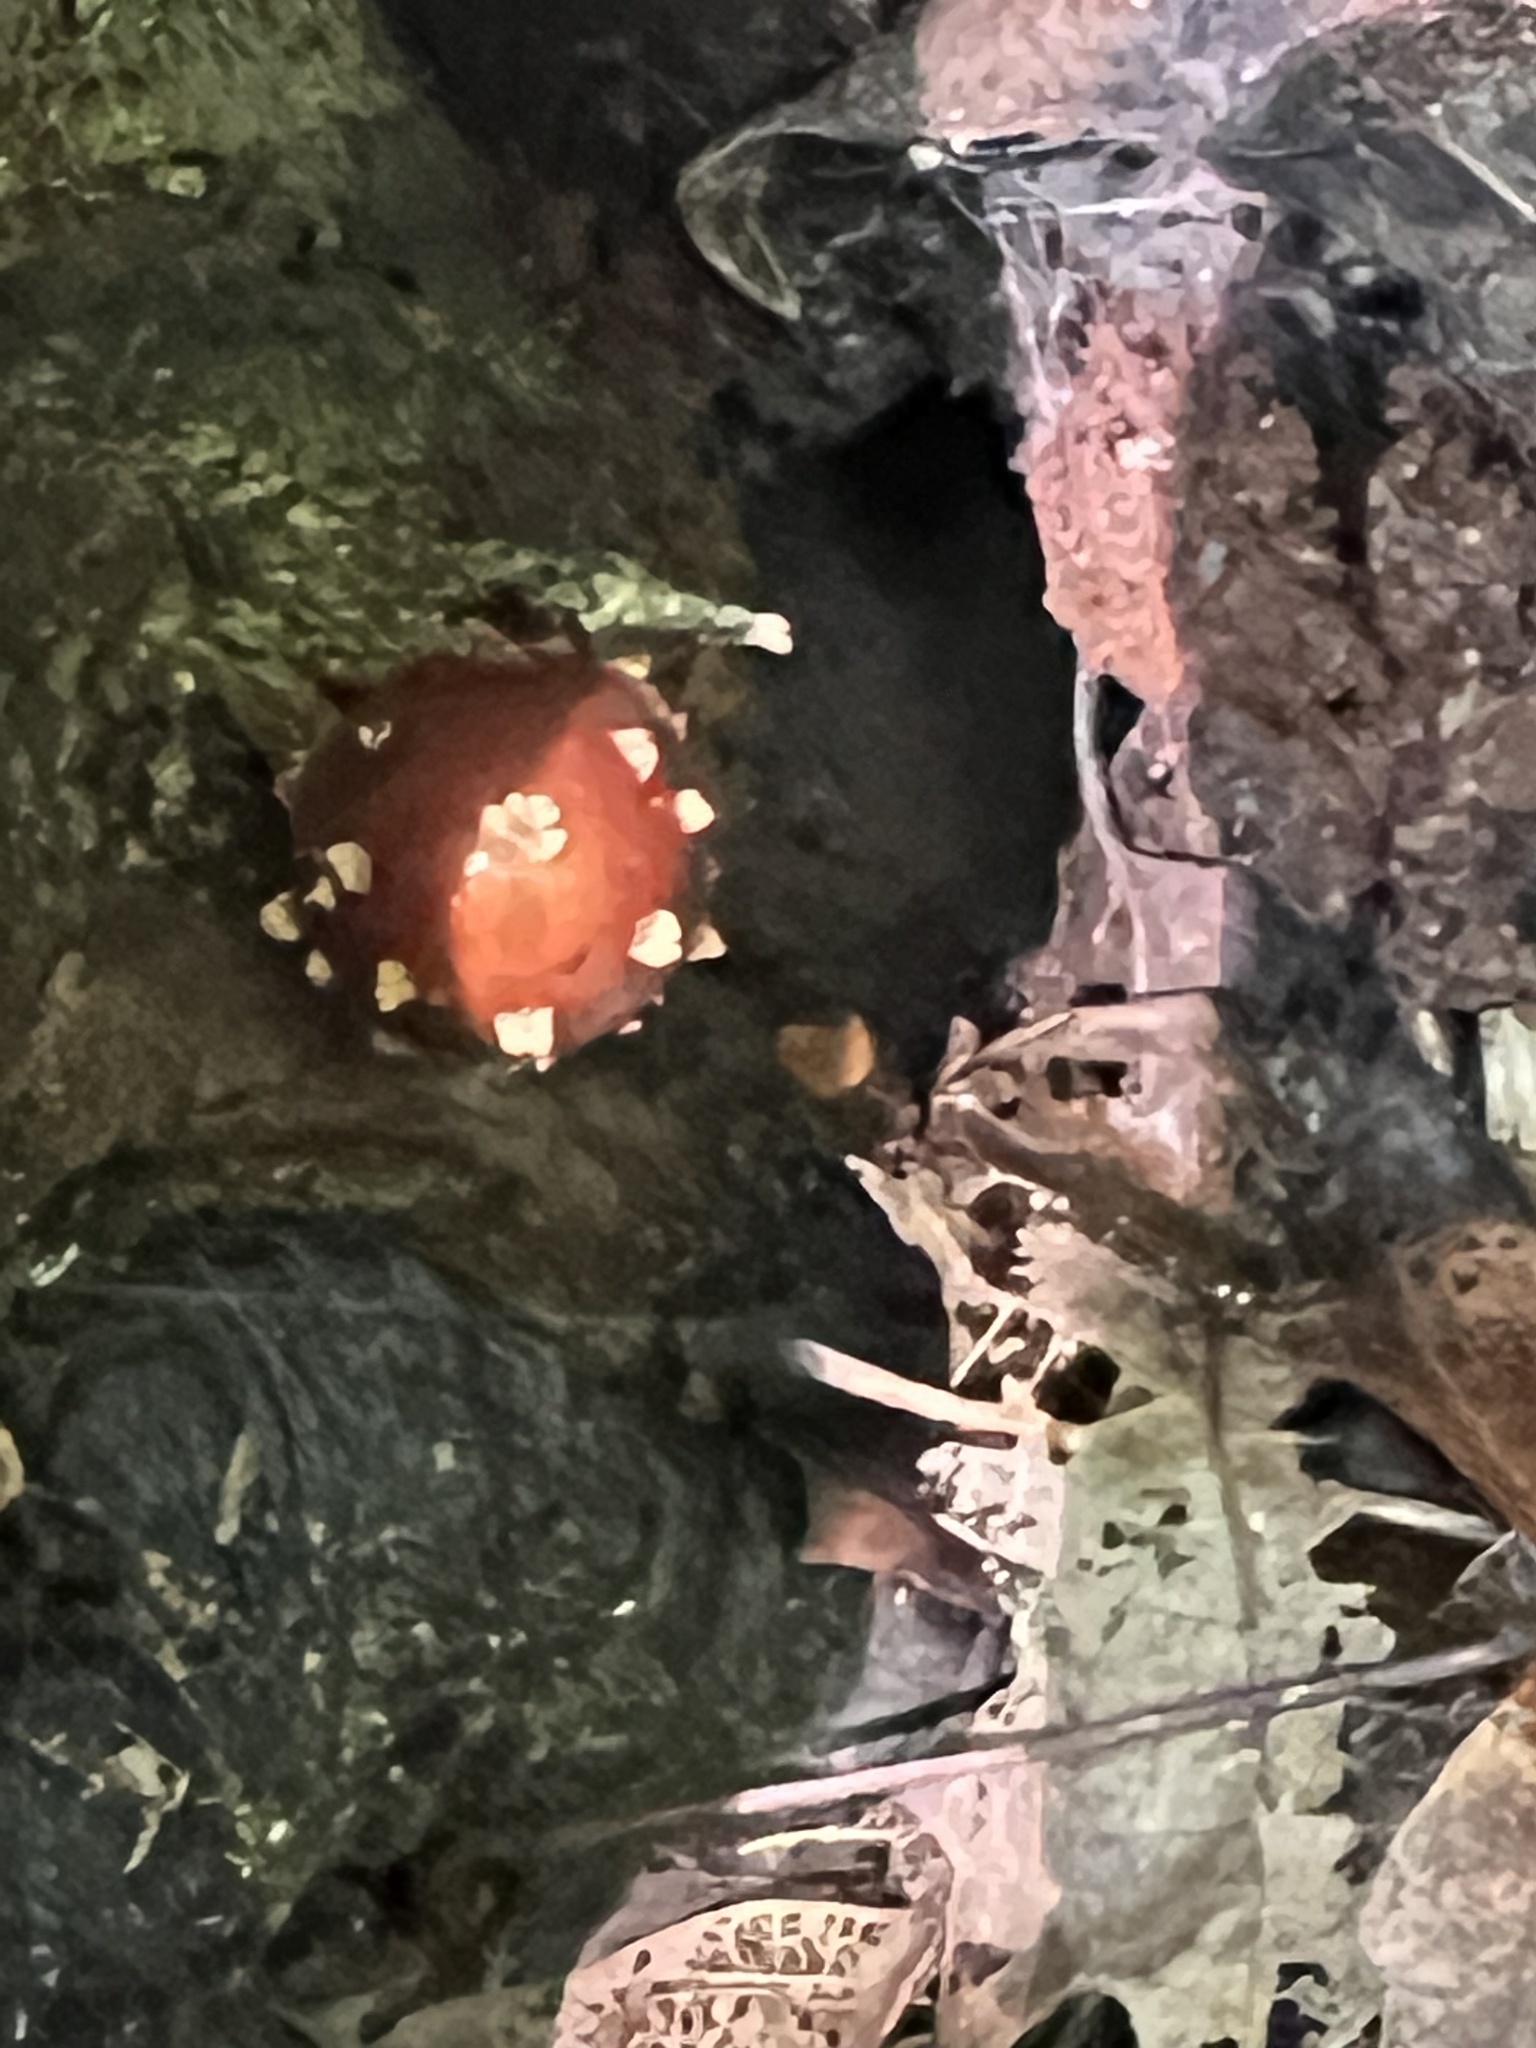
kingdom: Fungi
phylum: Basidiomycota
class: Agaricomycetes
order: Agaricales
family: Tubariaceae
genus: Hemistropharia
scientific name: Hemistropharia albocrenulata
